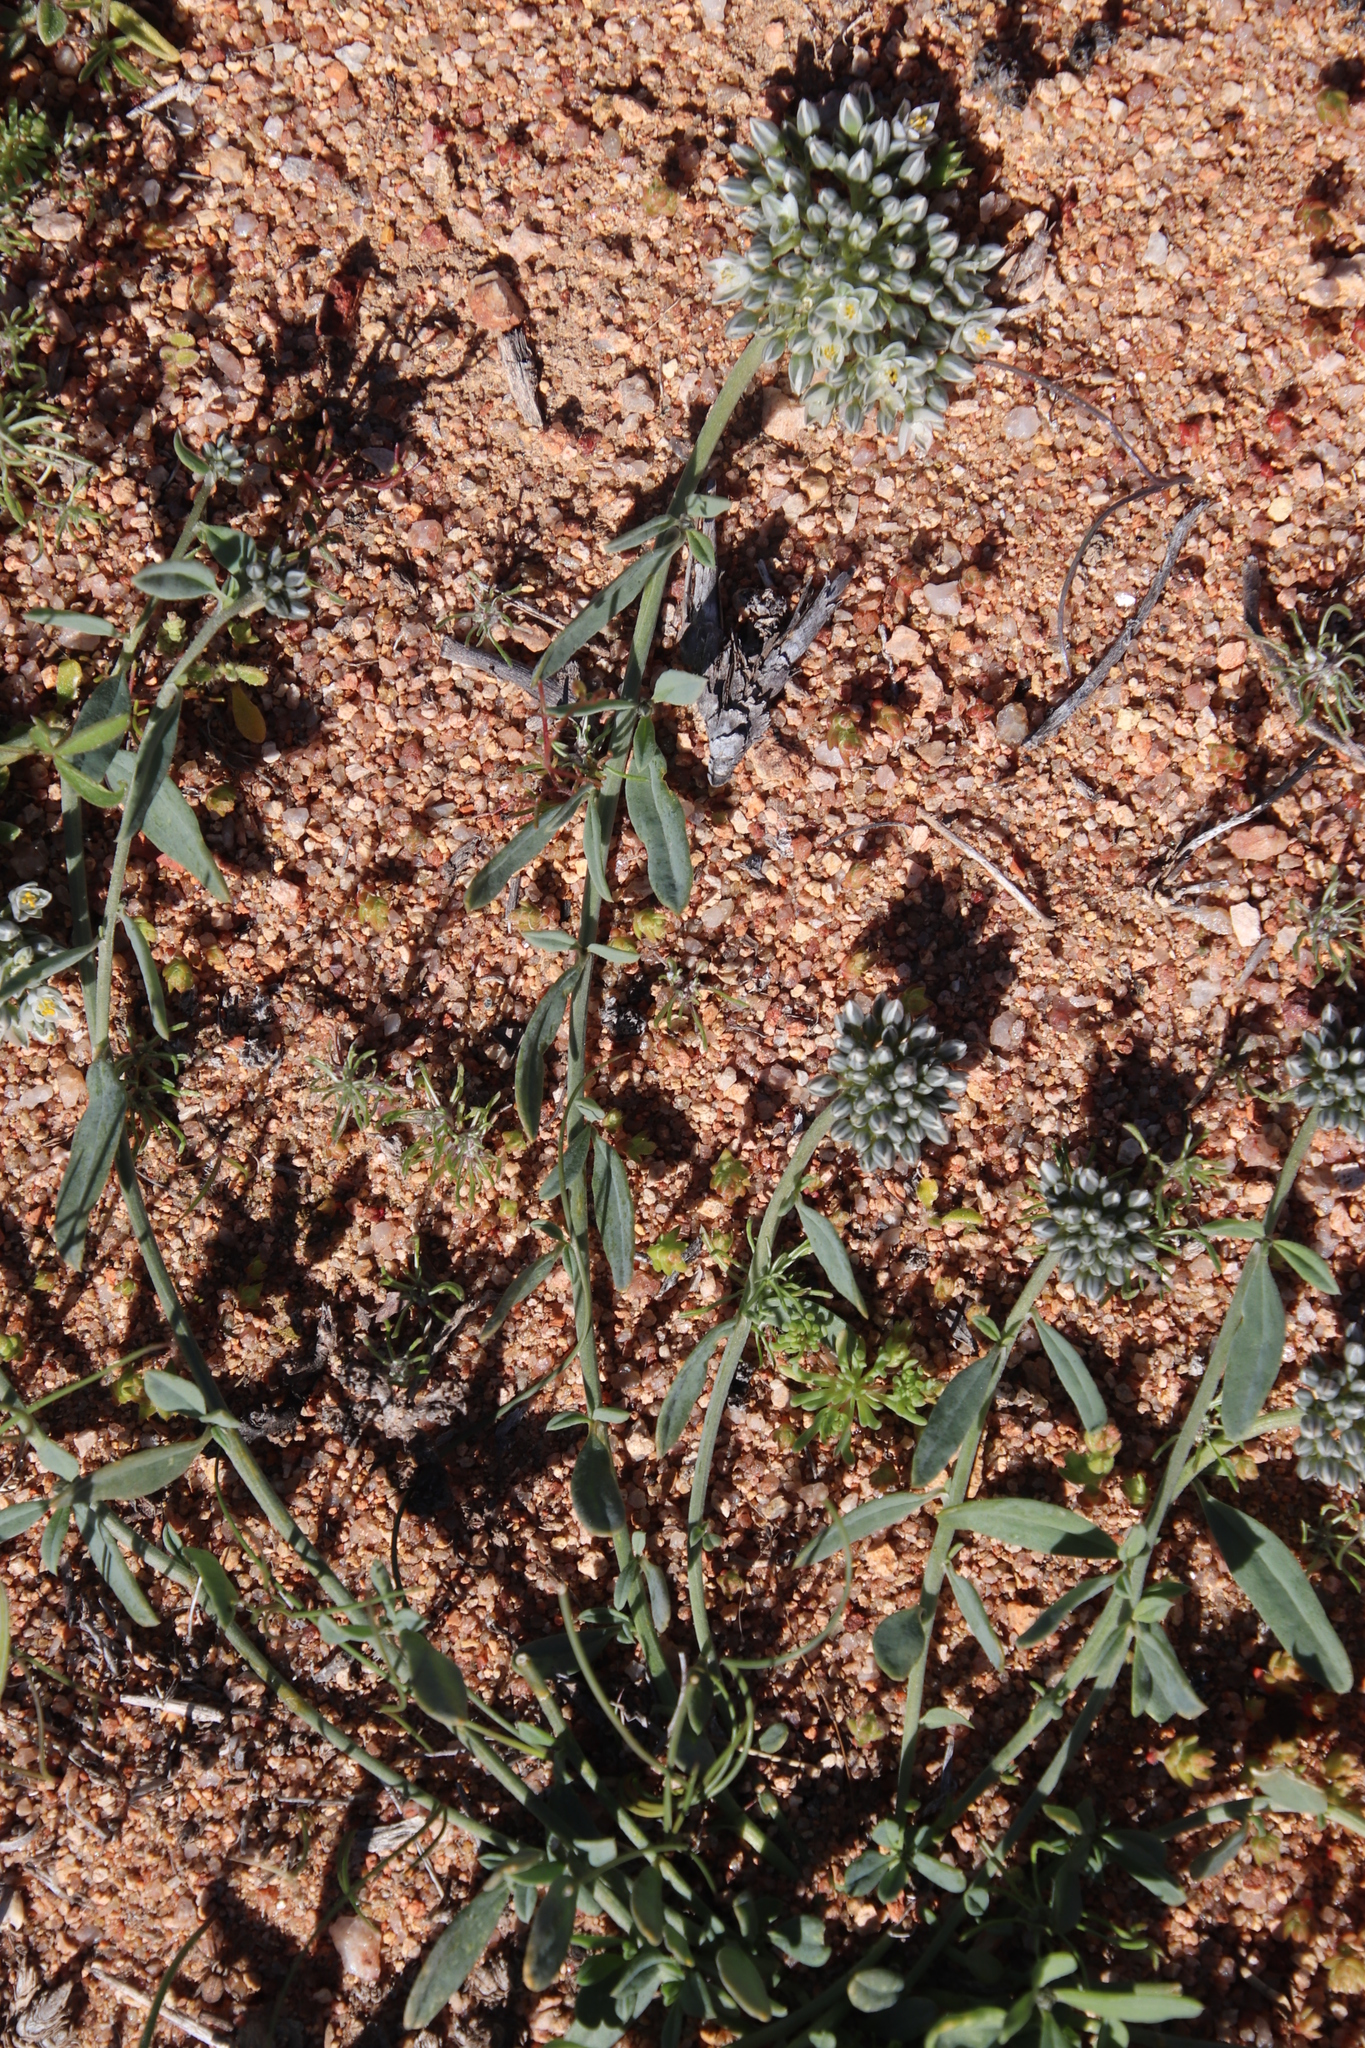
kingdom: Plantae
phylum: Tracheophyta
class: Magnoliopsida
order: Caryophyllales
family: Limeaceae
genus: Limeum
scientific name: Limeum africanum
